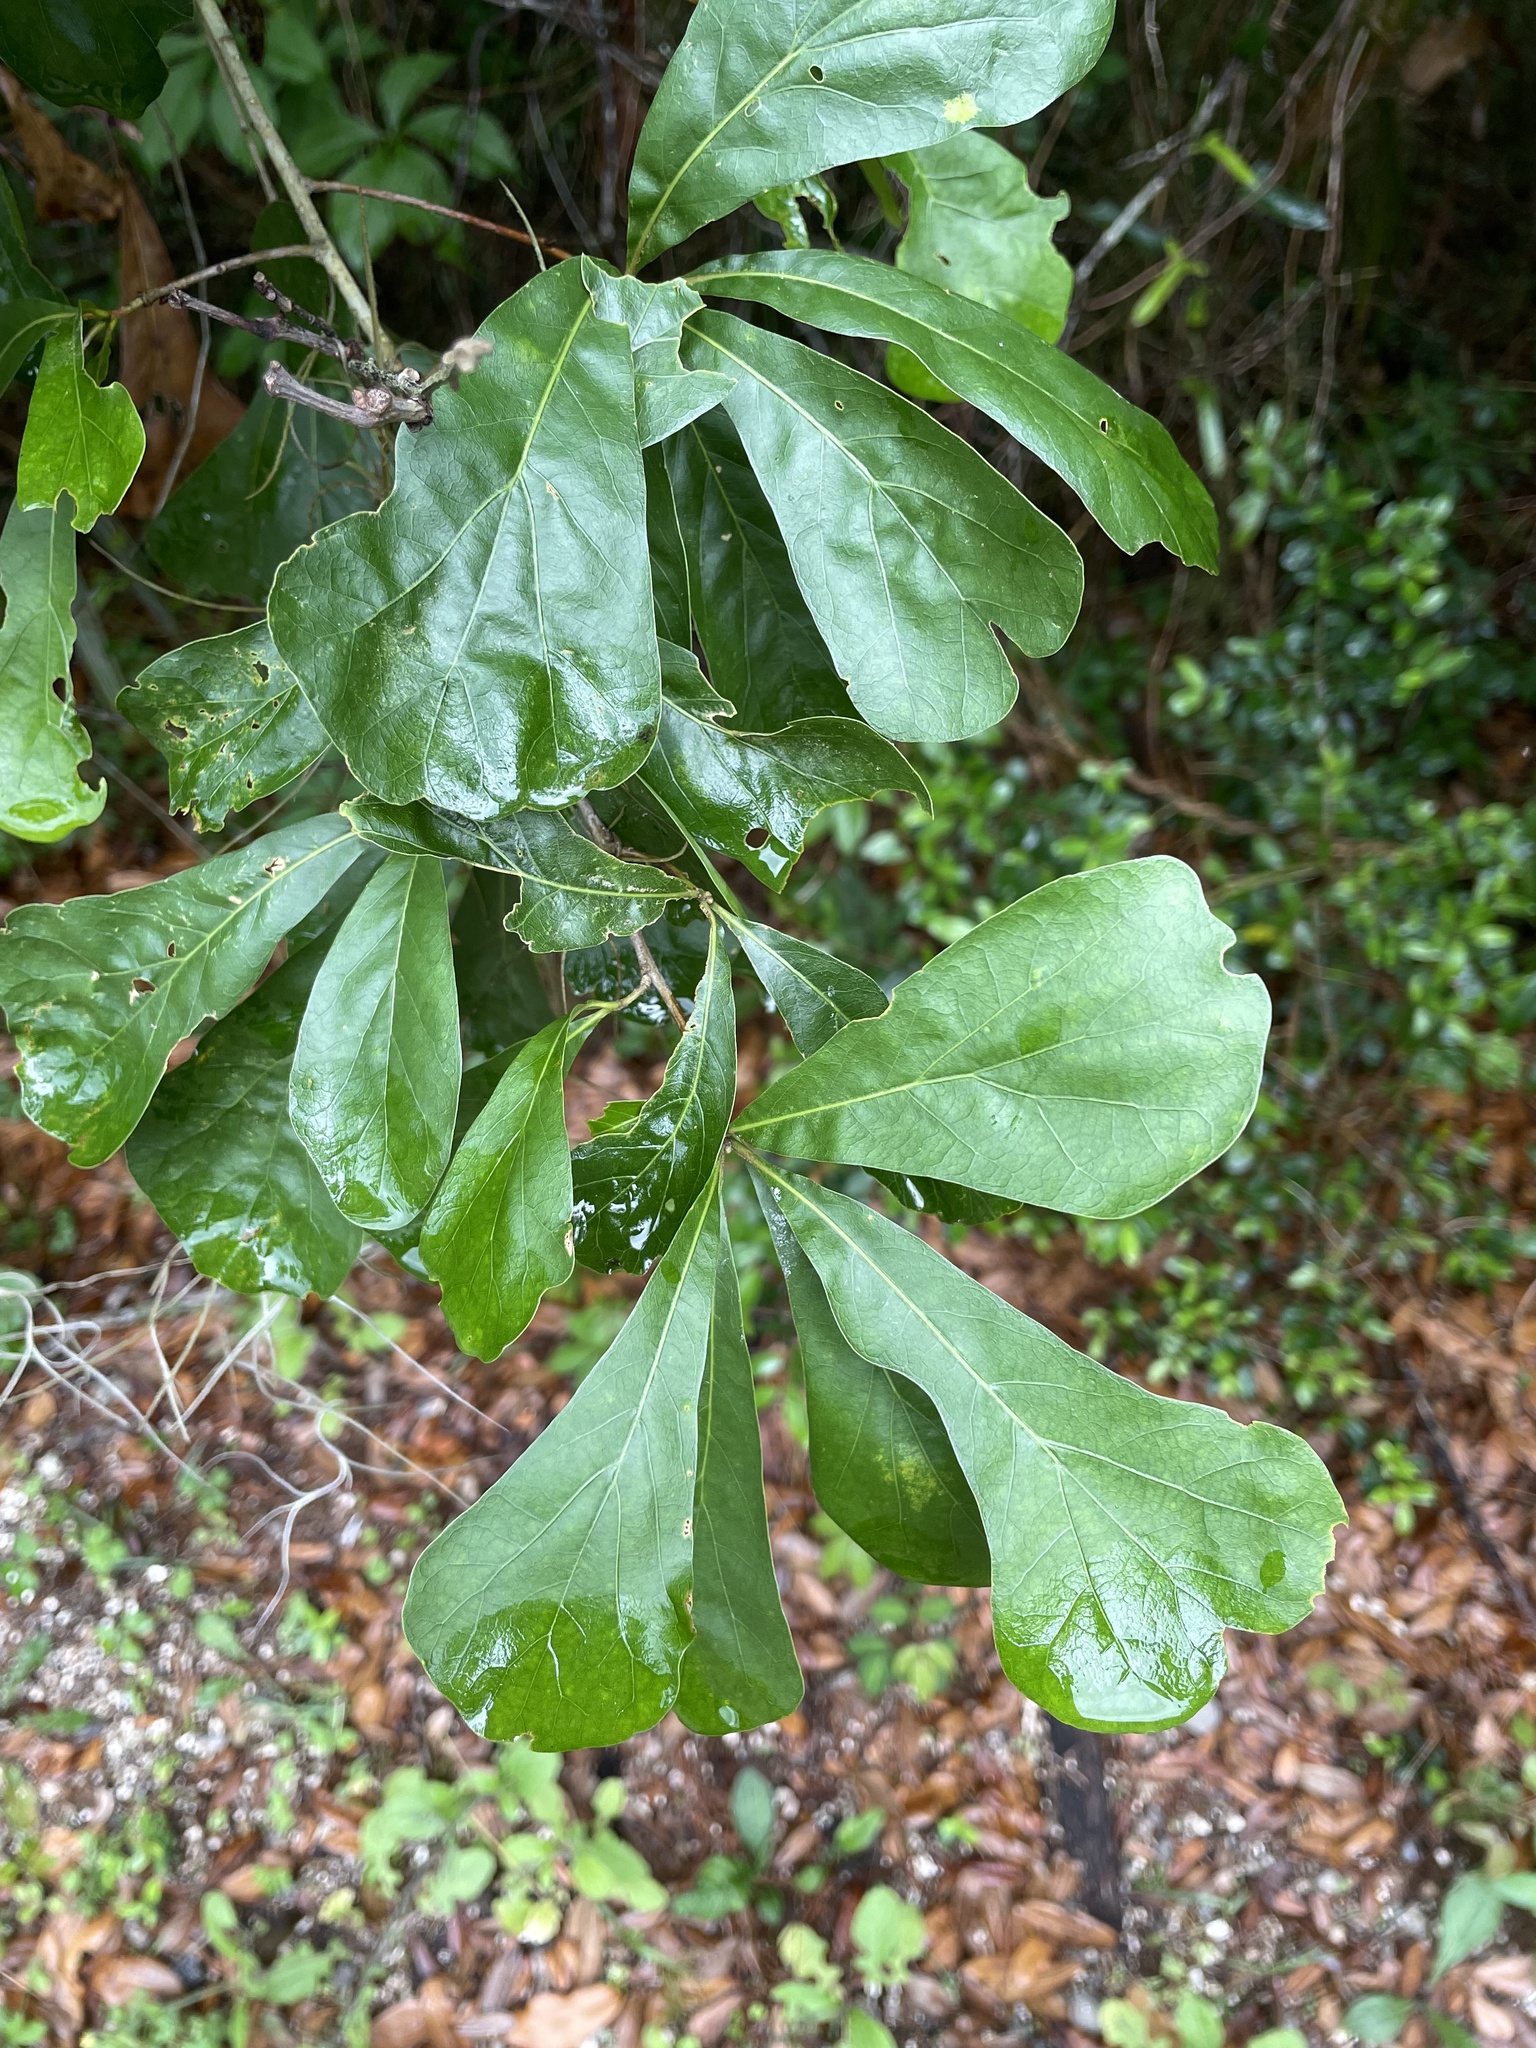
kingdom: Plantae
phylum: Tracheophyta
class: Magnoliopsida
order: Fagales
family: Fagaceae
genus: Quercus
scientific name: Quercus nigra
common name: Water oak
